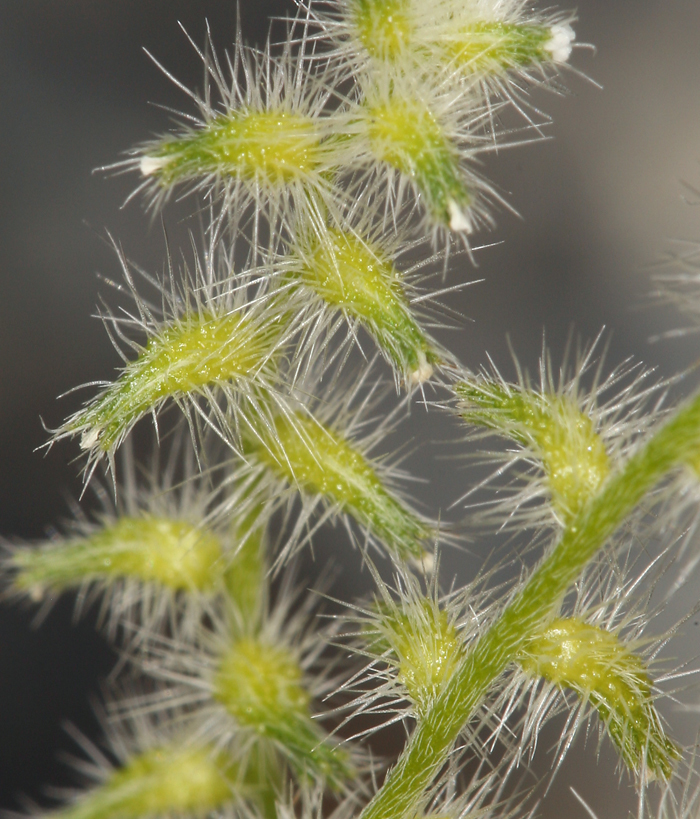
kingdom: Plantae
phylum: Tracheophyta
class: Magnoliopsida
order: Boraginales
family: Boraginaceae
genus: Cryptantha
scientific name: Cryptantha recurvata
